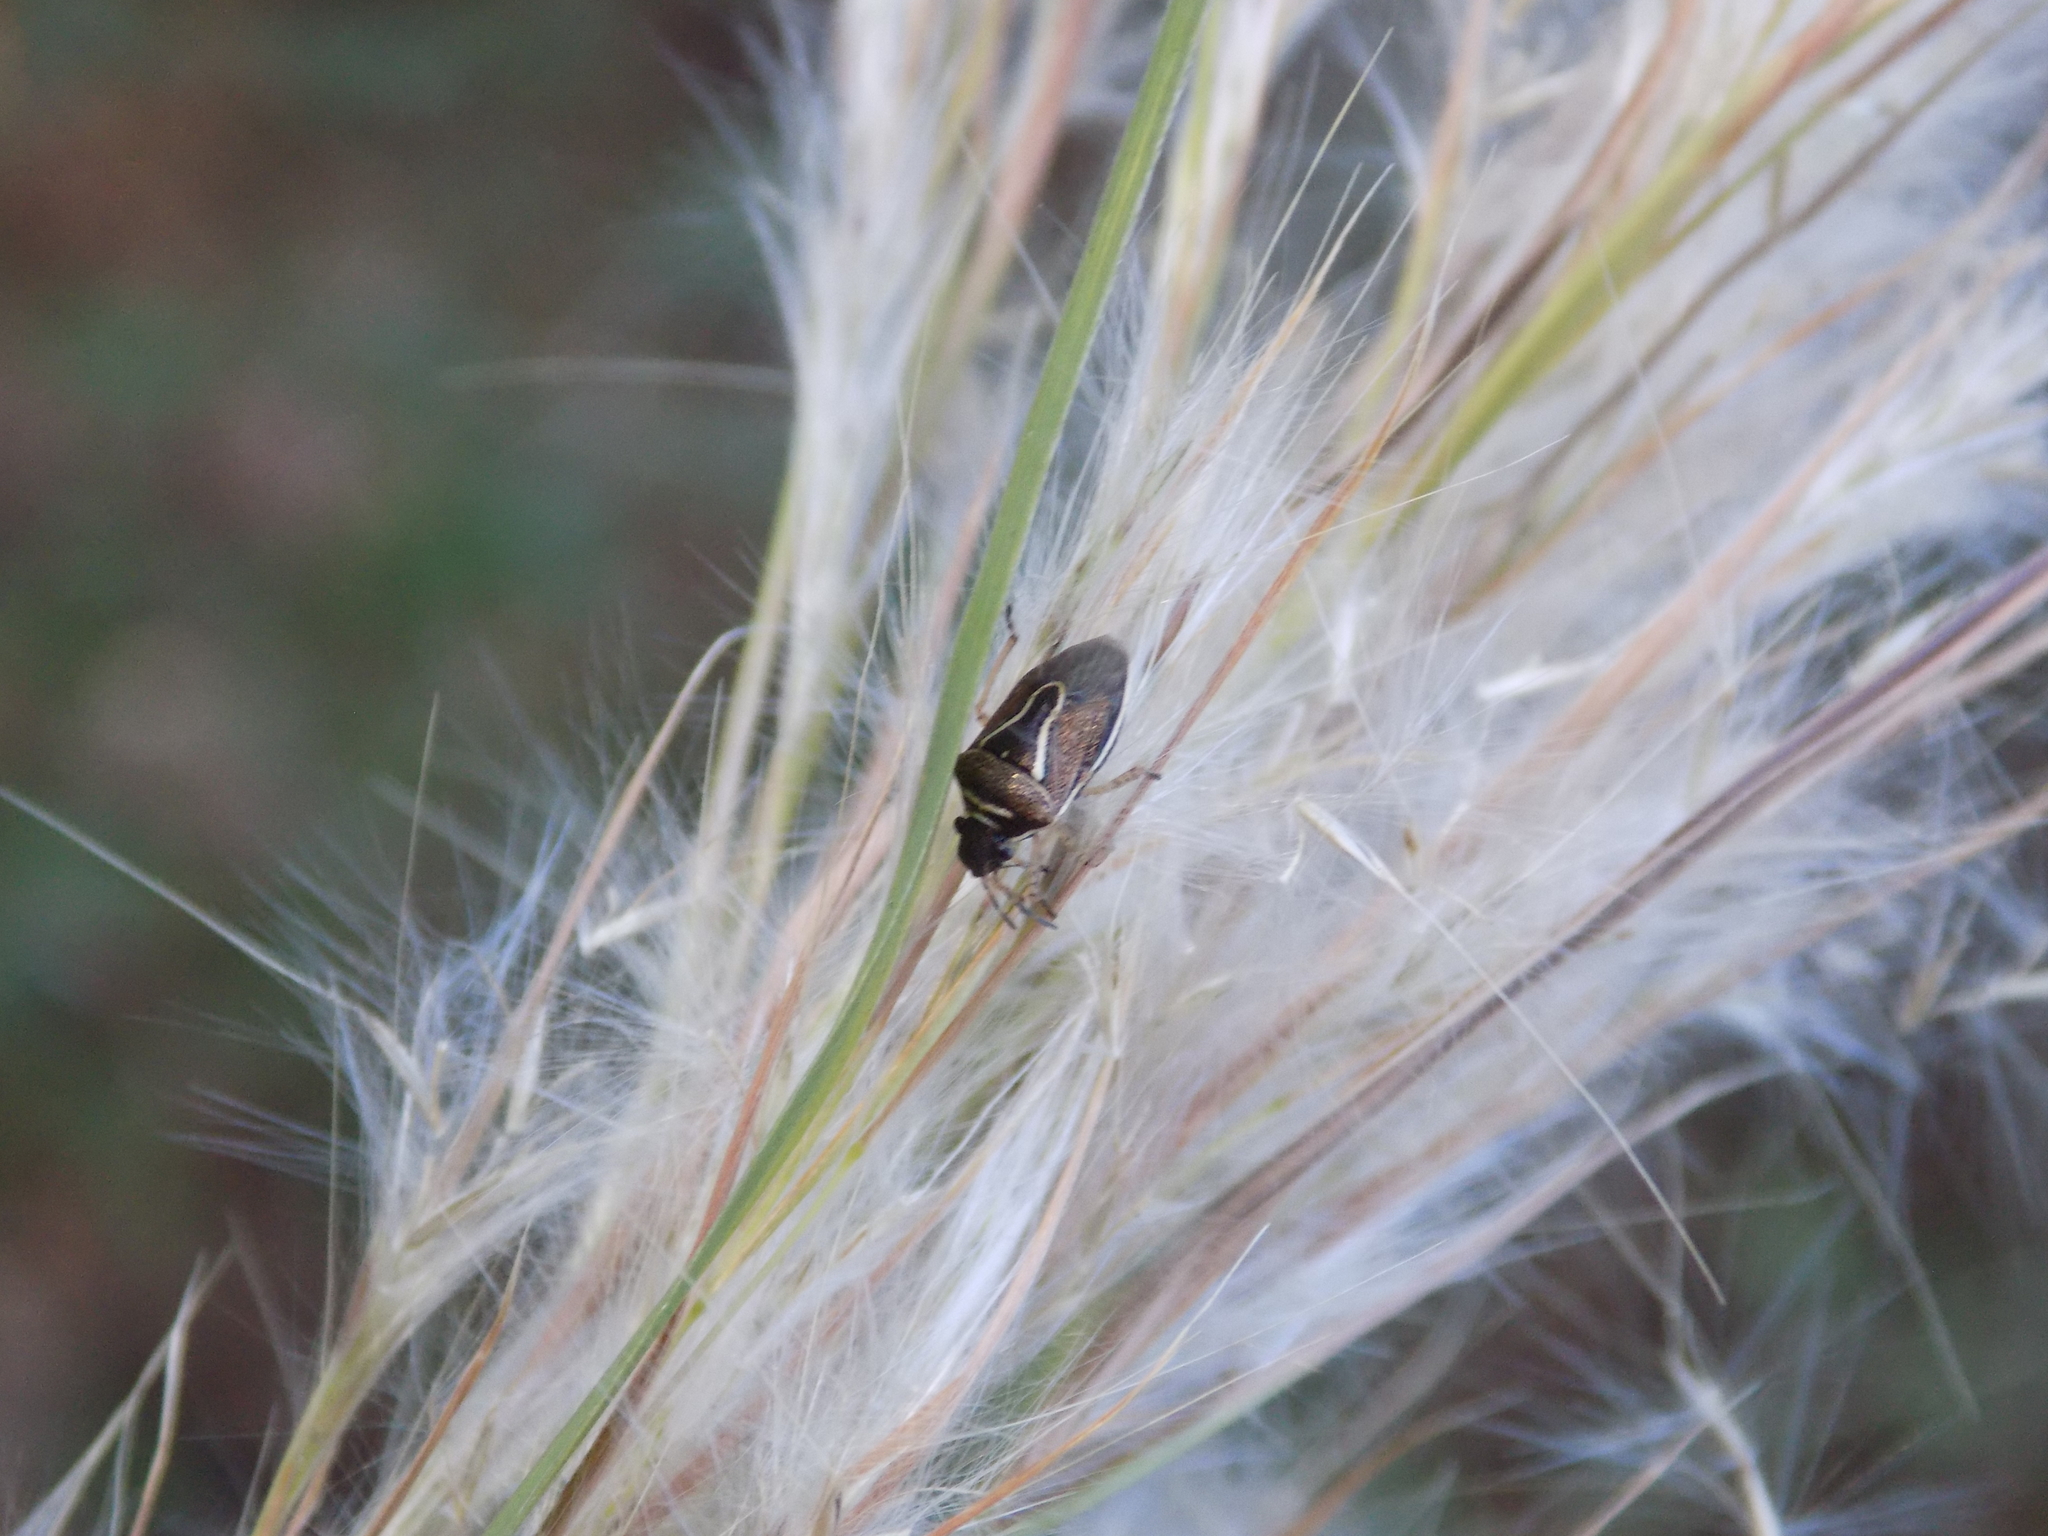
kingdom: Animalia
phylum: Arthropoda
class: Insecta
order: Hemiptera
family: Pentatomidae
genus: Mormidea
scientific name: Mormidea lugens
